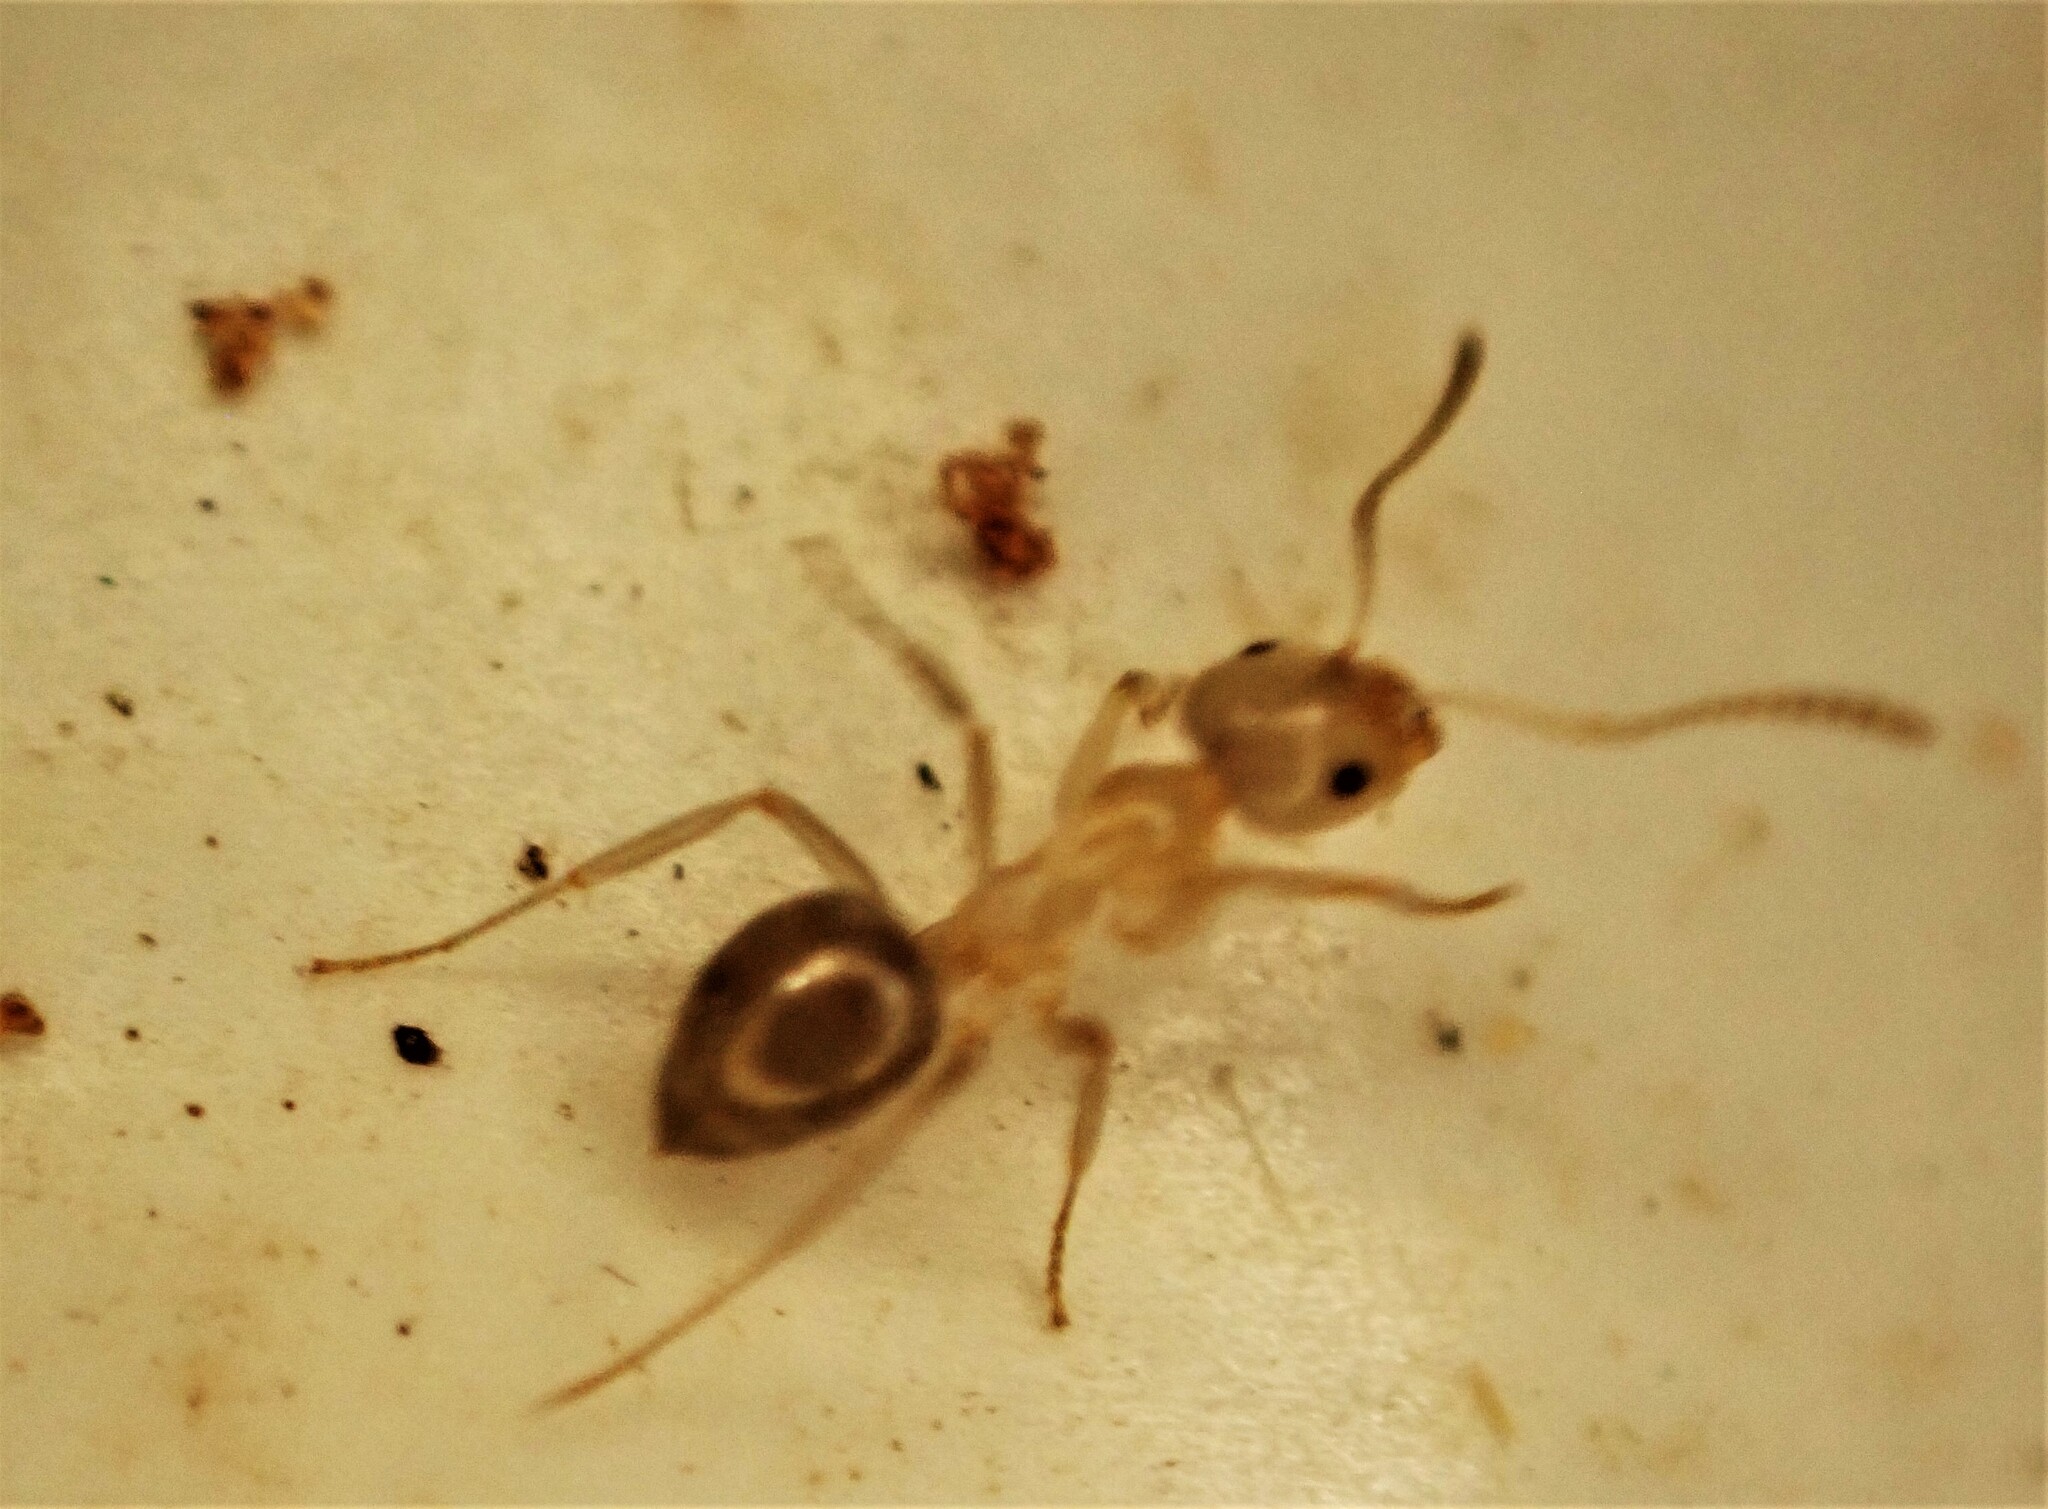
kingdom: Animalia
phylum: Arthropoda
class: Insecta
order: Hymenoptera
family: Formicidae
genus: Prolasius
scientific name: Prolasius advenus
